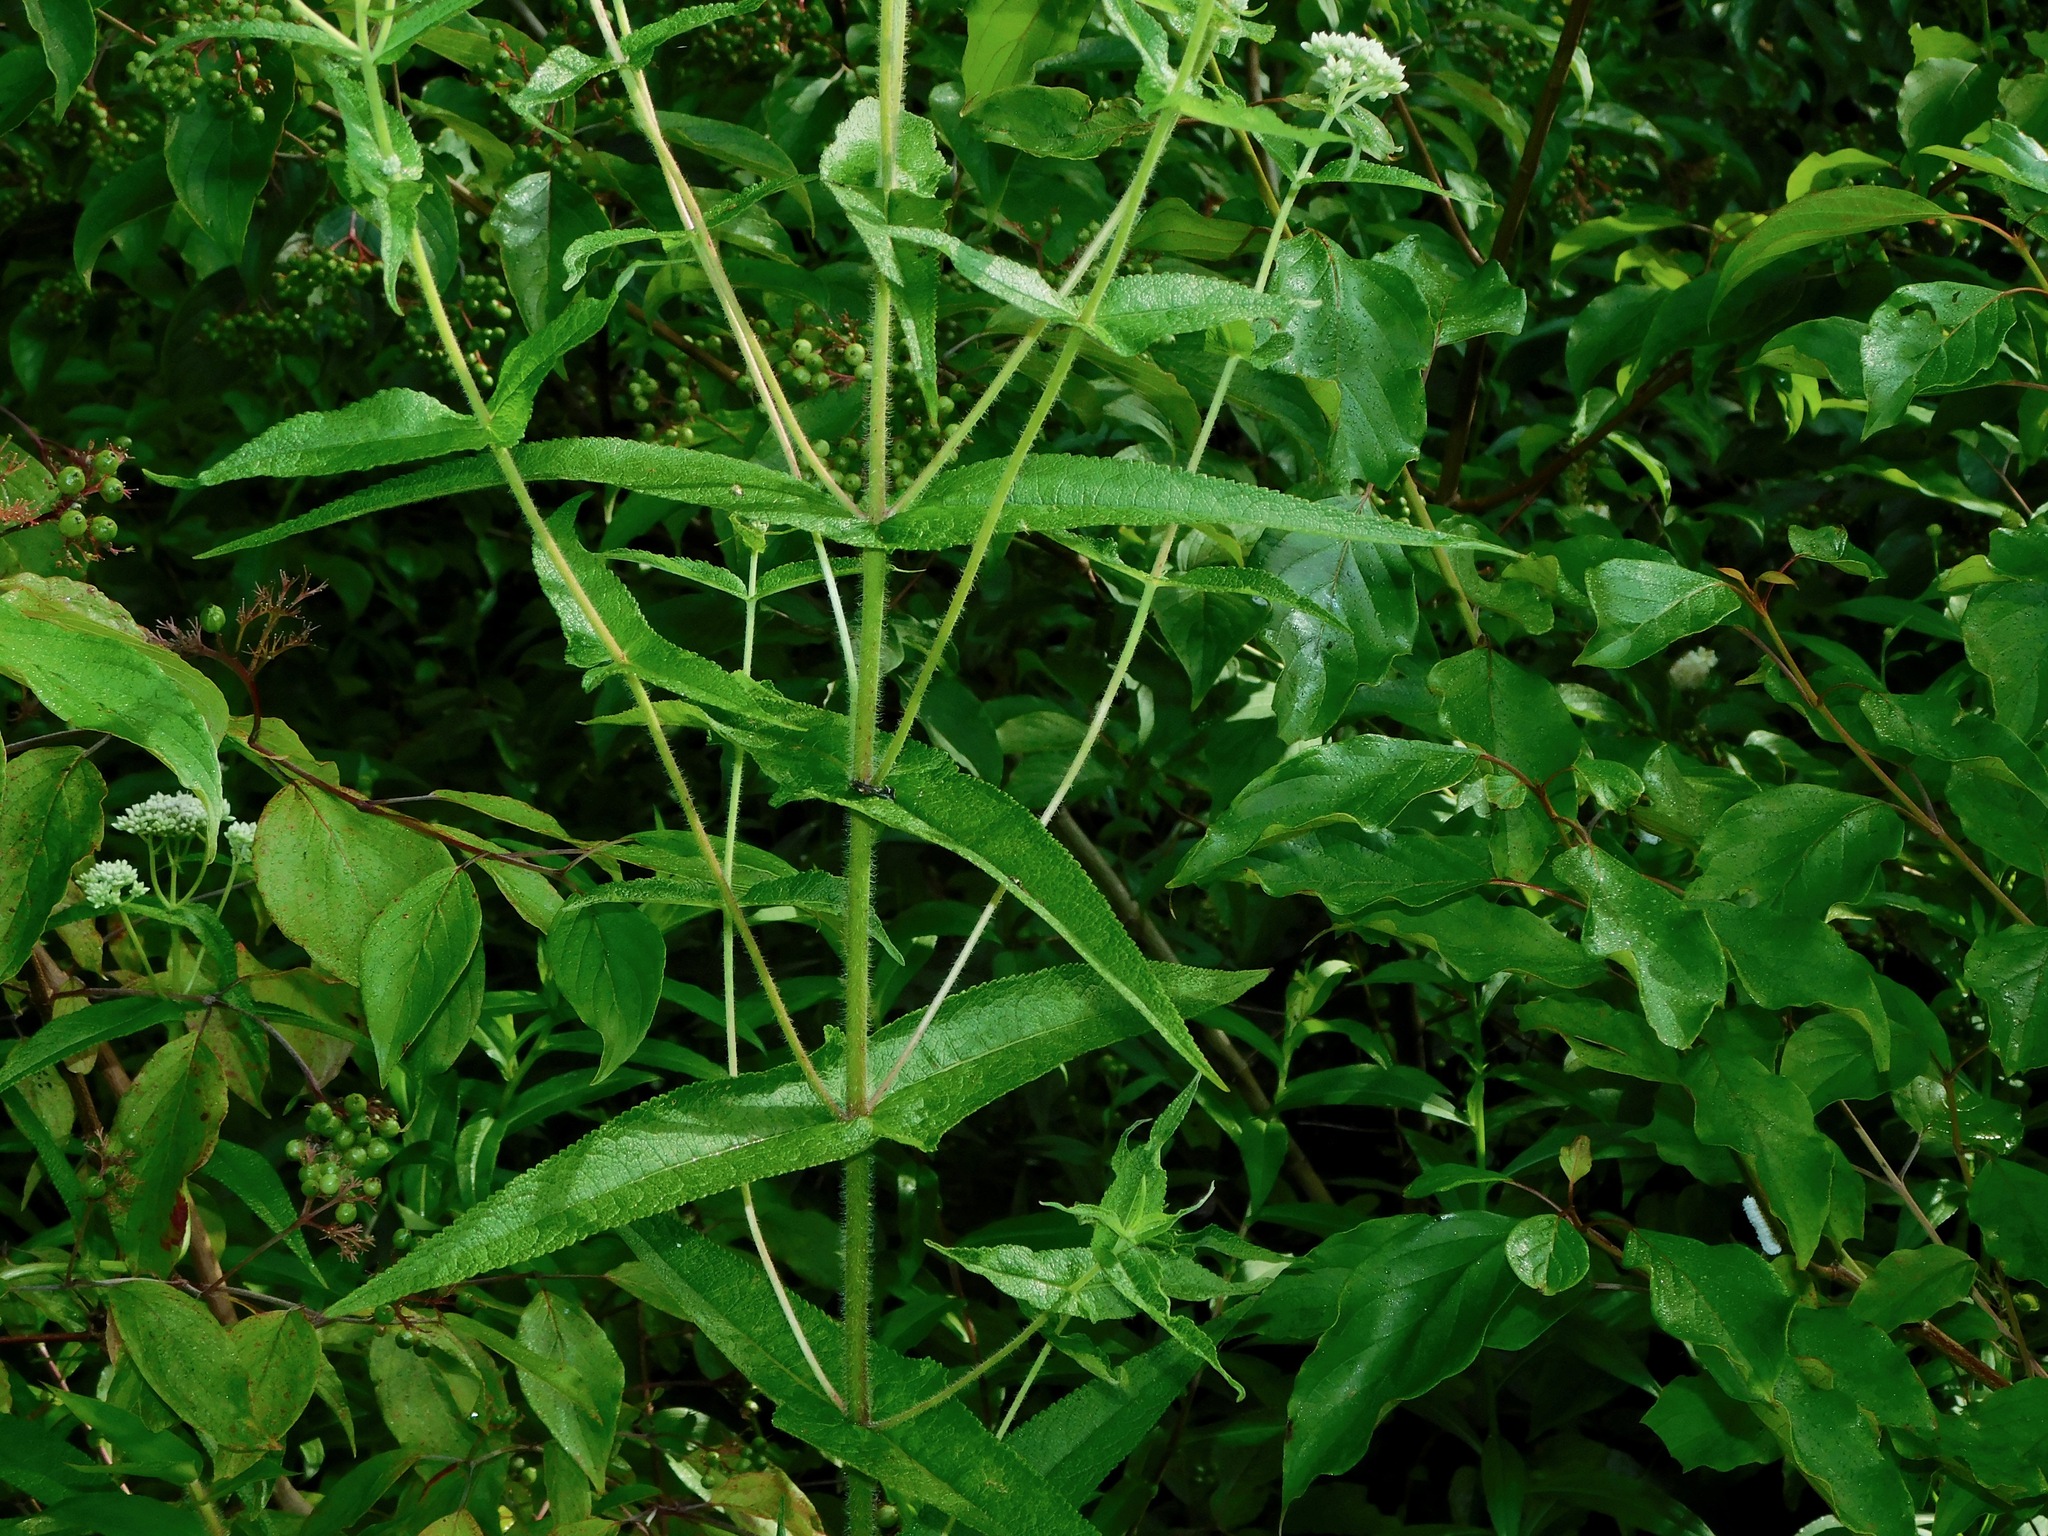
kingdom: Plantae
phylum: Tracheophyta
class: Magnoliopsida
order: Asterales
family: Asteraceae
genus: Eupatorium
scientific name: Eupatorium perfoliatum
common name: Boneset
